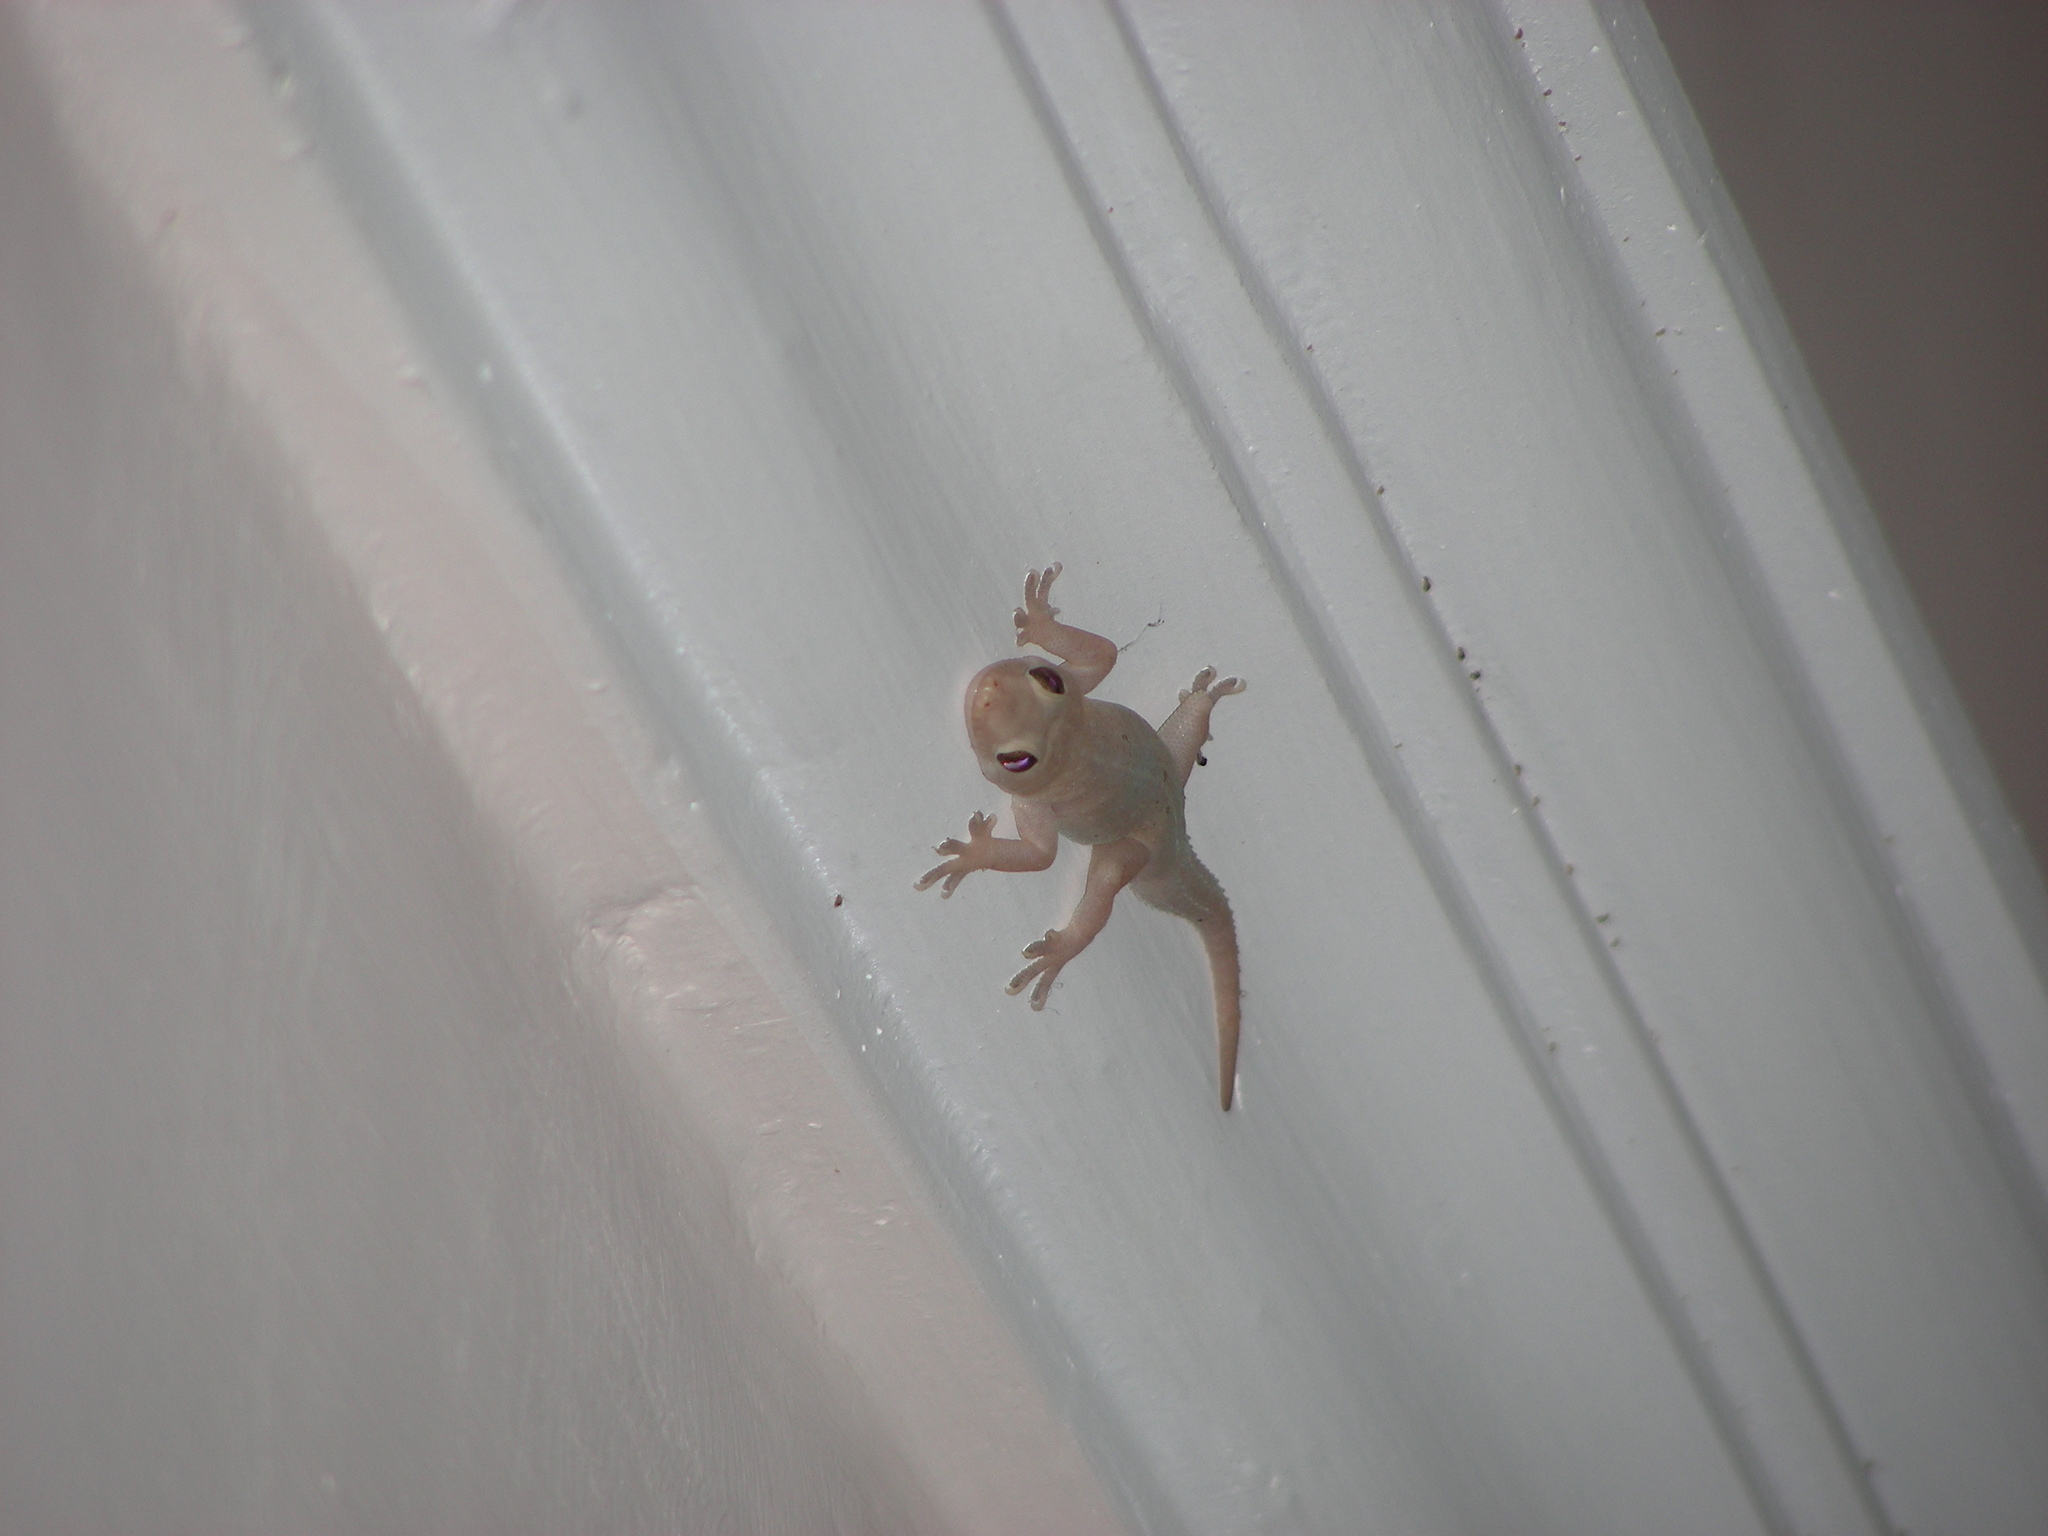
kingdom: Animalia
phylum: Chordata
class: Squamata
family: Gekkonidae
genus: Hemidactylus
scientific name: Hemidactylus frenatus
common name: Common house gecko
